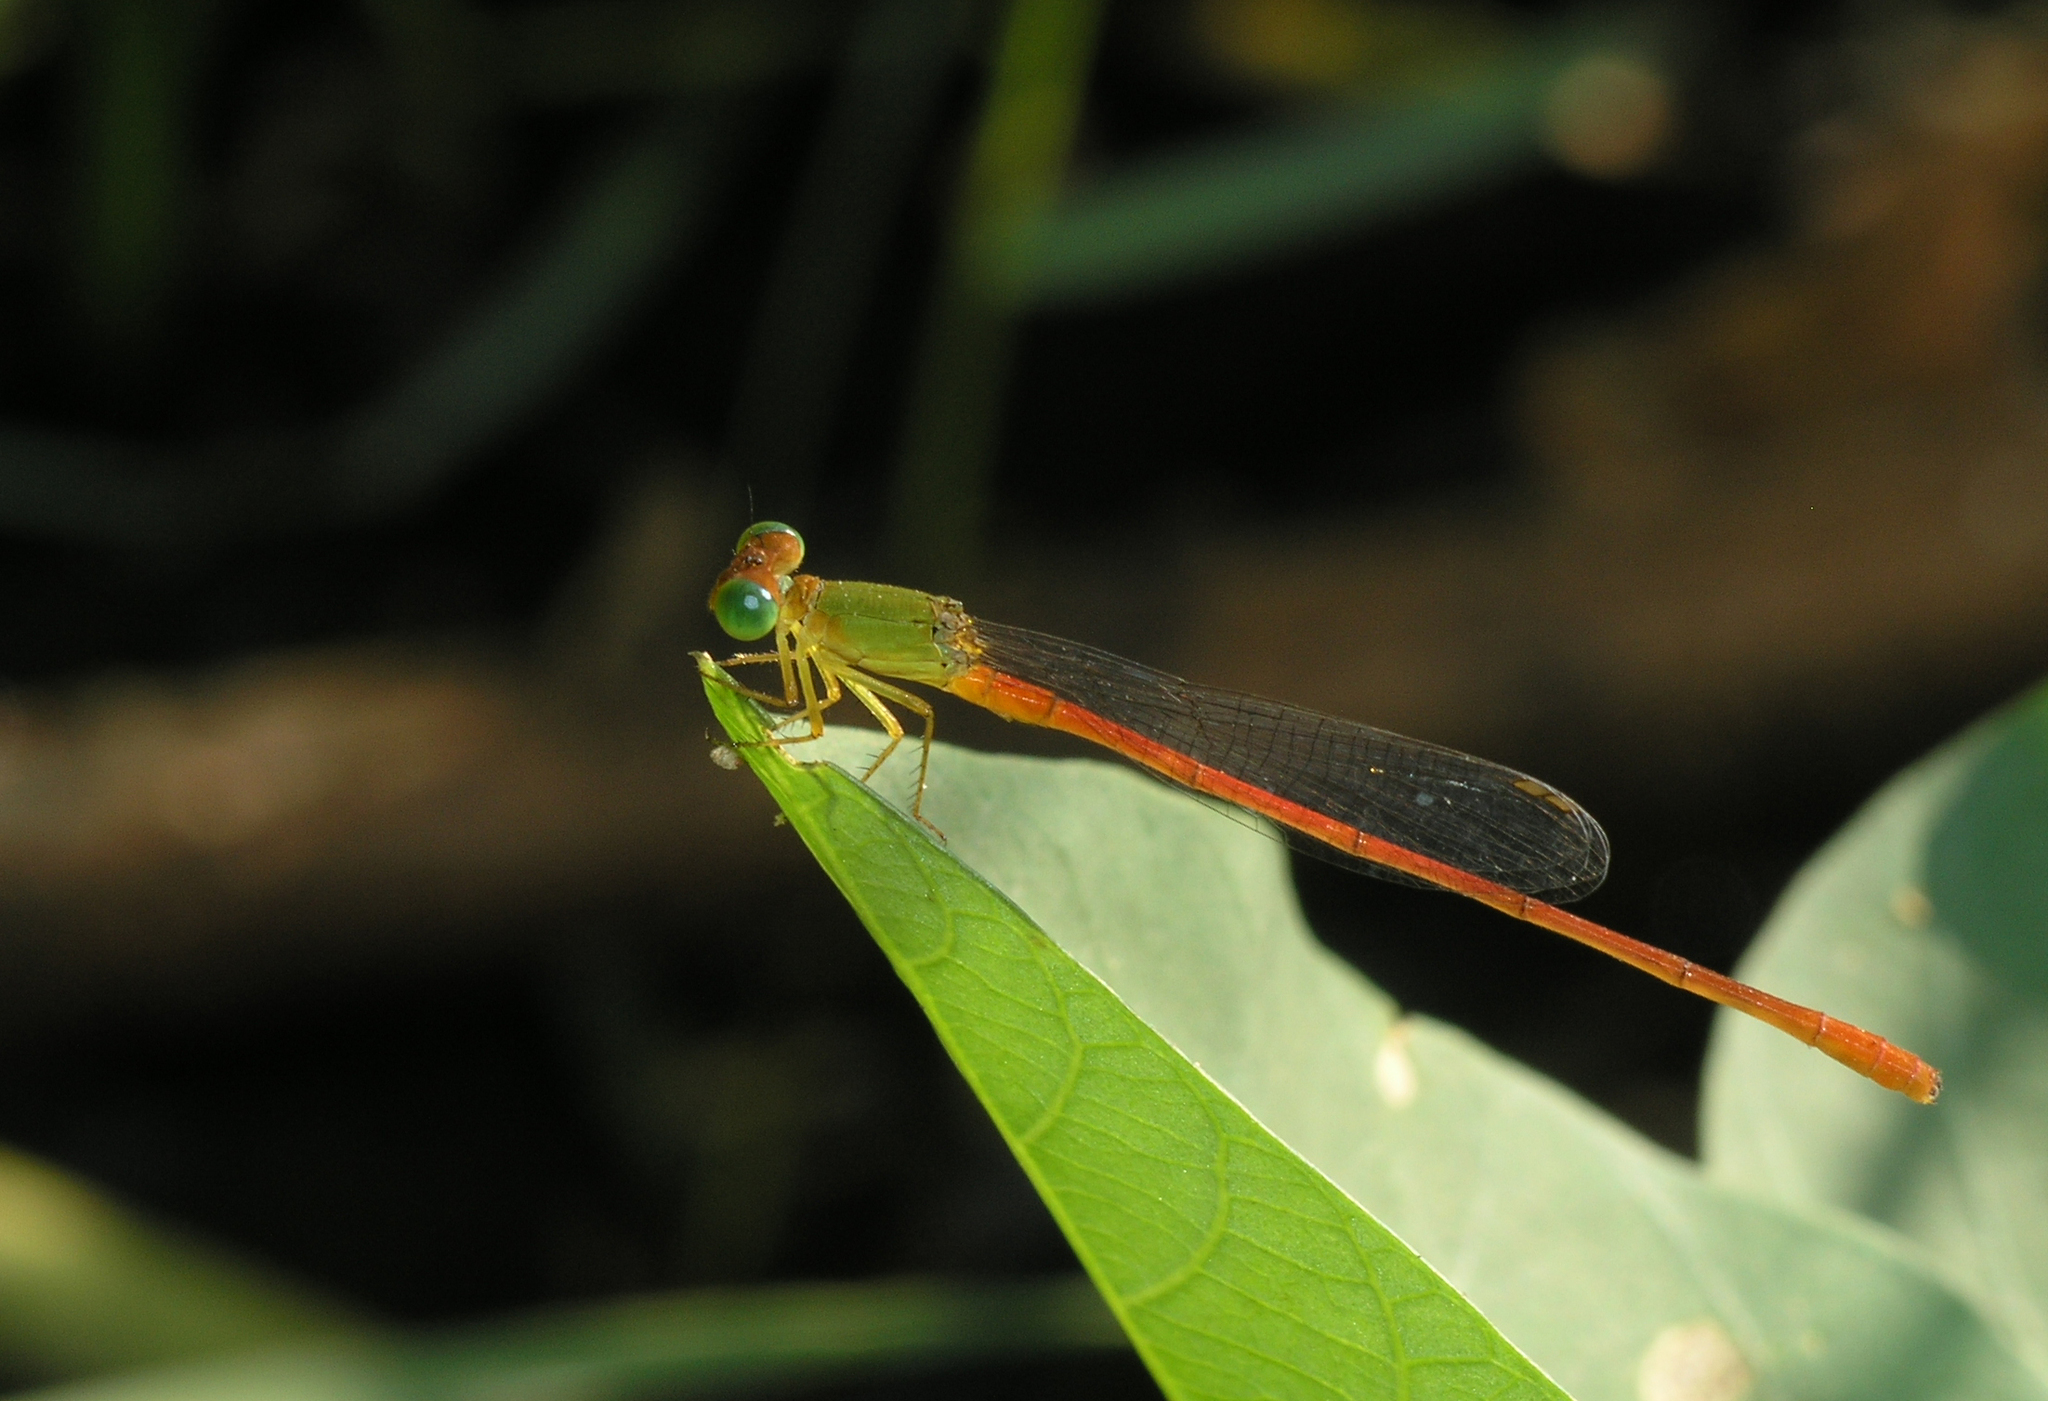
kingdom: Animalia
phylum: Arthropoda
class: Insecta
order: Odonata
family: Coenagrionidae
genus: Ceriagrion
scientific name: Ceriagrion auranticum
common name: Orange-tailed sprite
